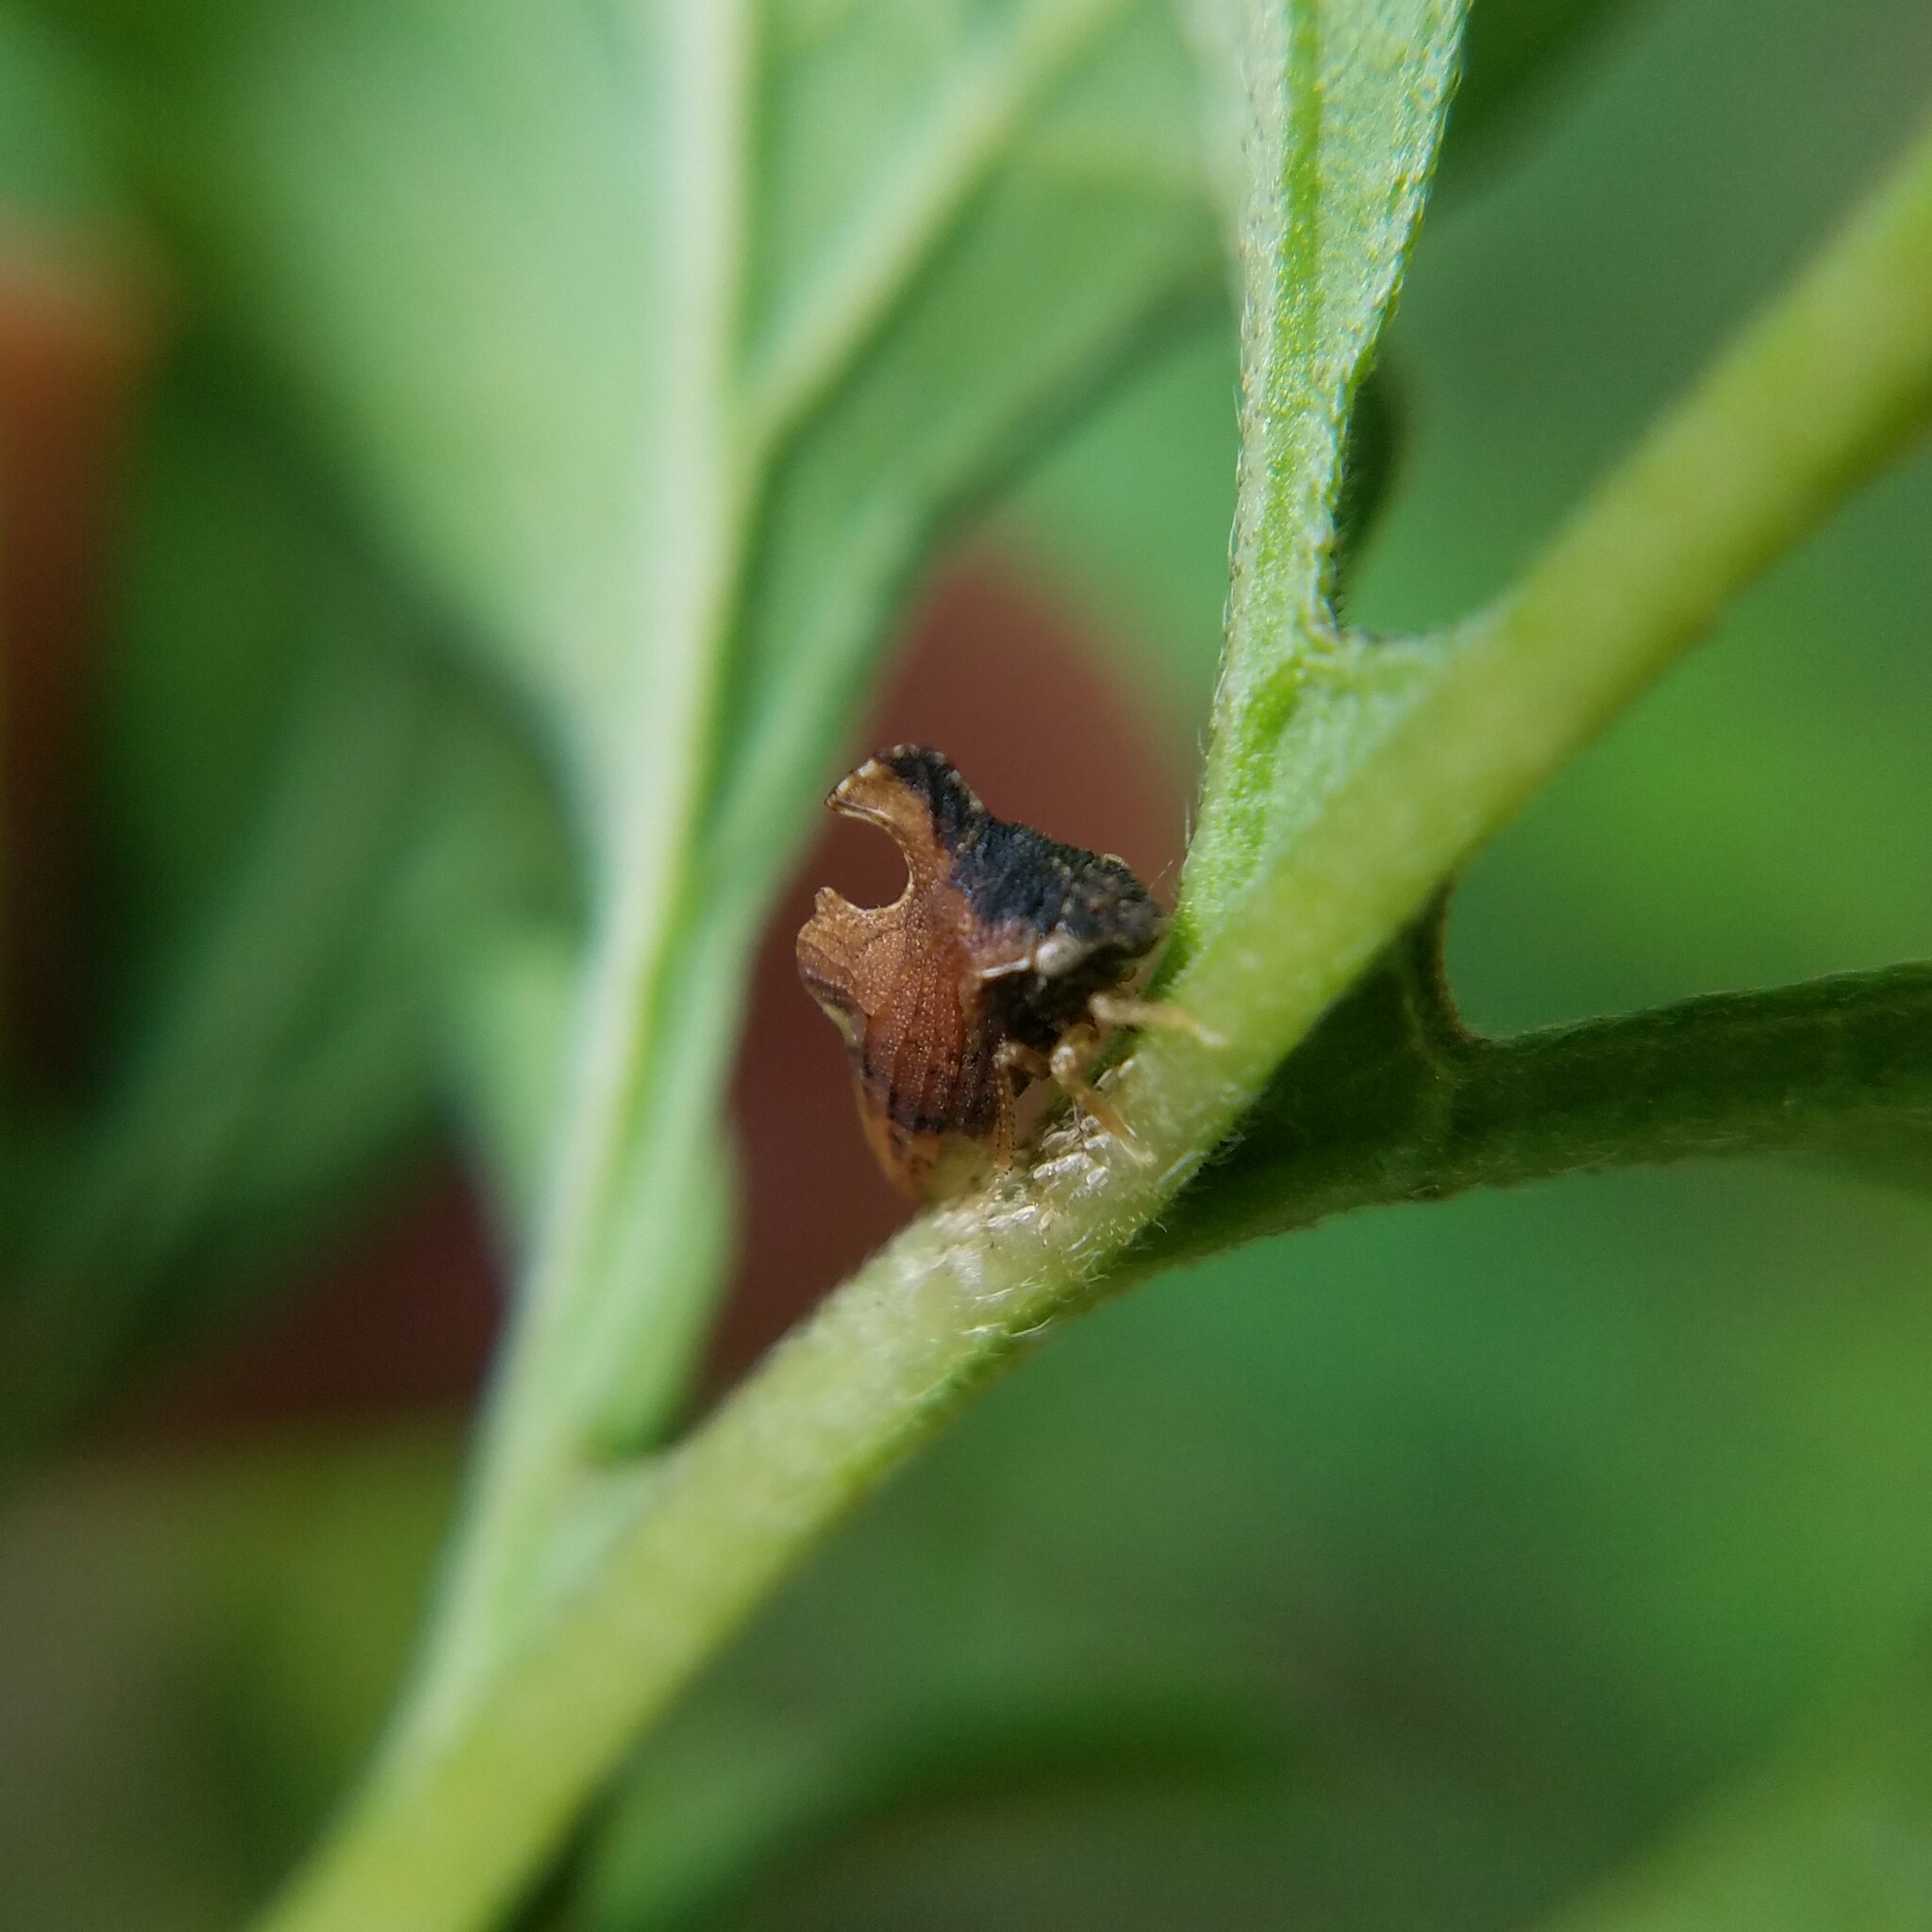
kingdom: Animalia
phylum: Arthropoda
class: Insecta
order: Hemiptera
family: Membracidae
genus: Entylia
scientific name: Entylia carinata
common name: Keeled treehopper
